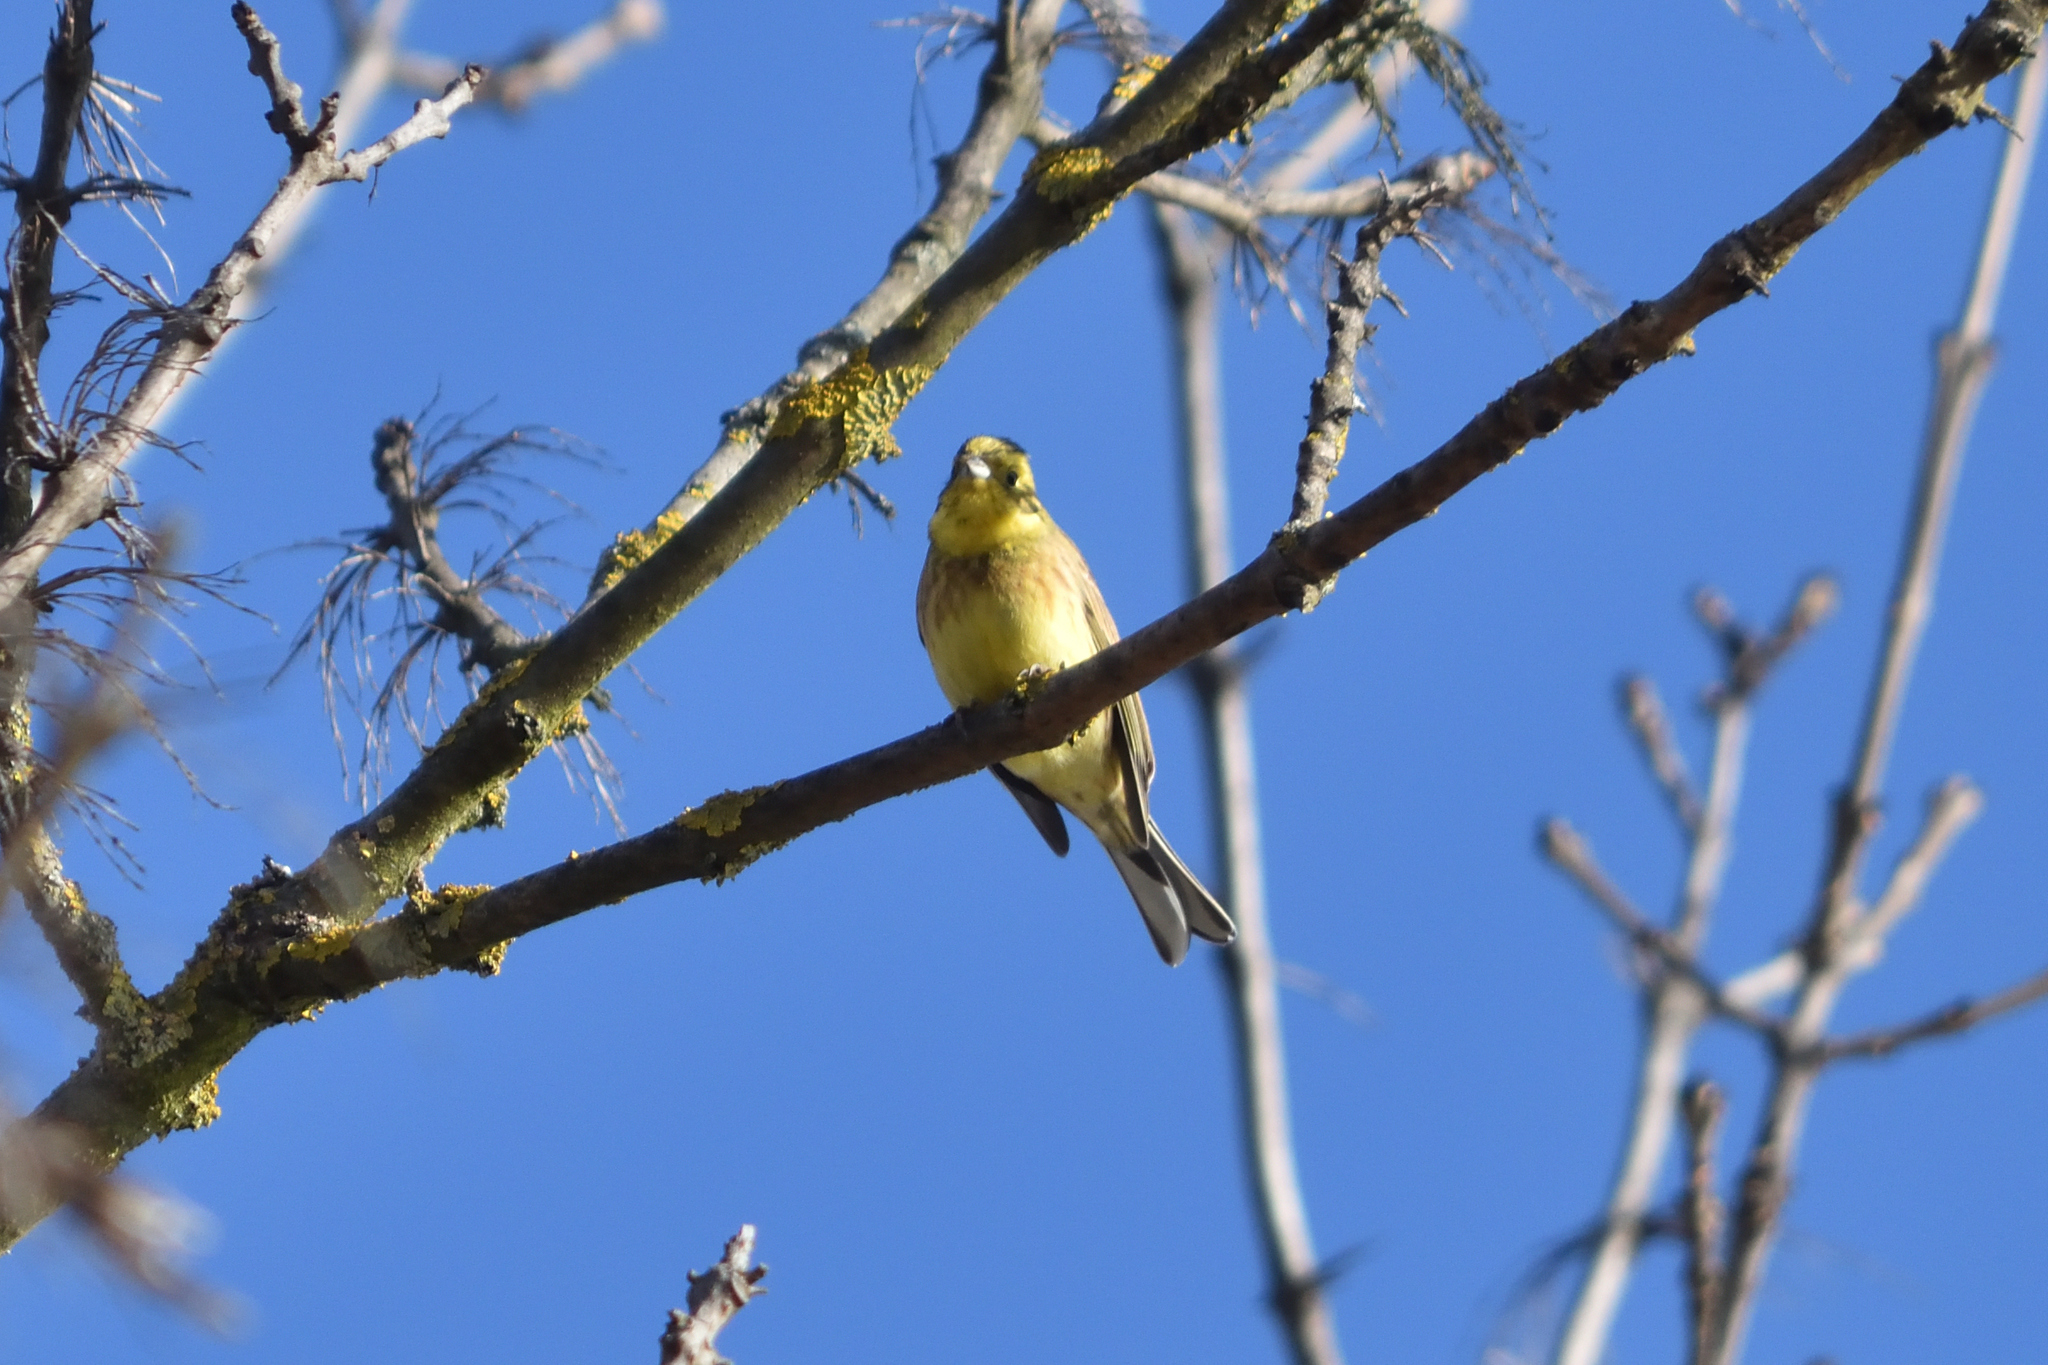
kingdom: Animalia
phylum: Chordata
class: Aves
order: Passeriformes
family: Emberizidae
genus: Emberiza
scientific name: Emberiza citrinella
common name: Yellowhammer
